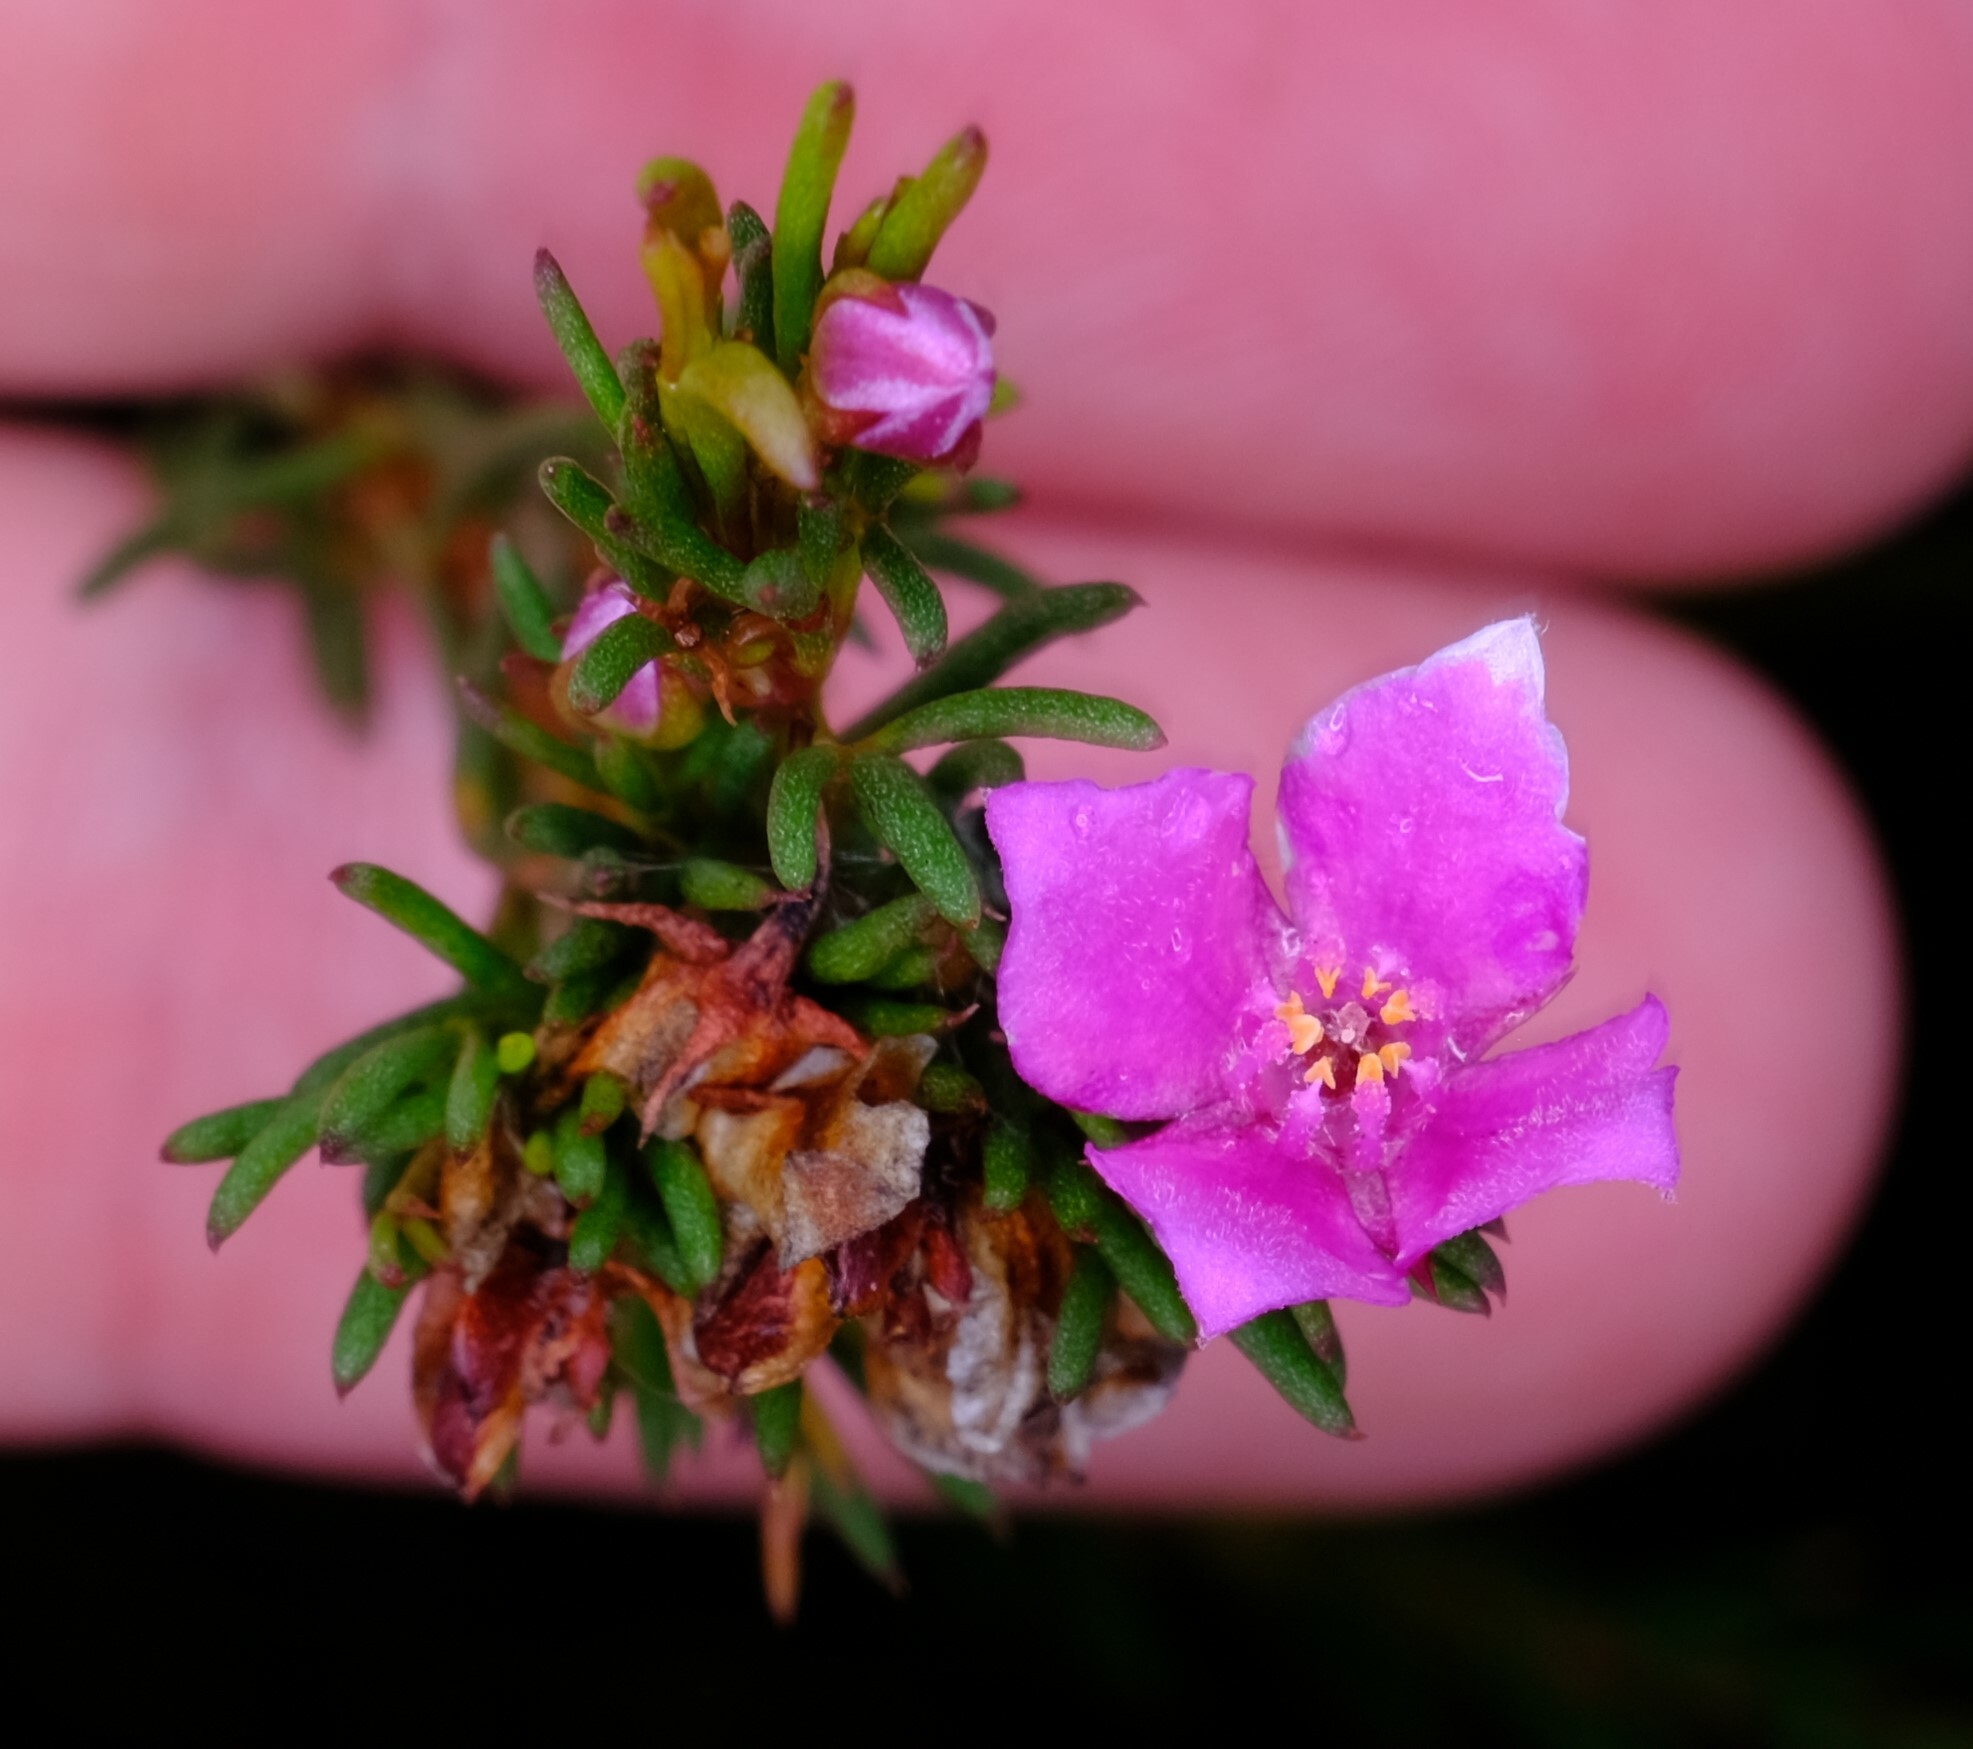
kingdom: Plantae
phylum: Tracheophyta
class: Magnoliopsida
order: Sapindales
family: Rutaceae
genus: Boronia
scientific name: Boronia falcifolia
